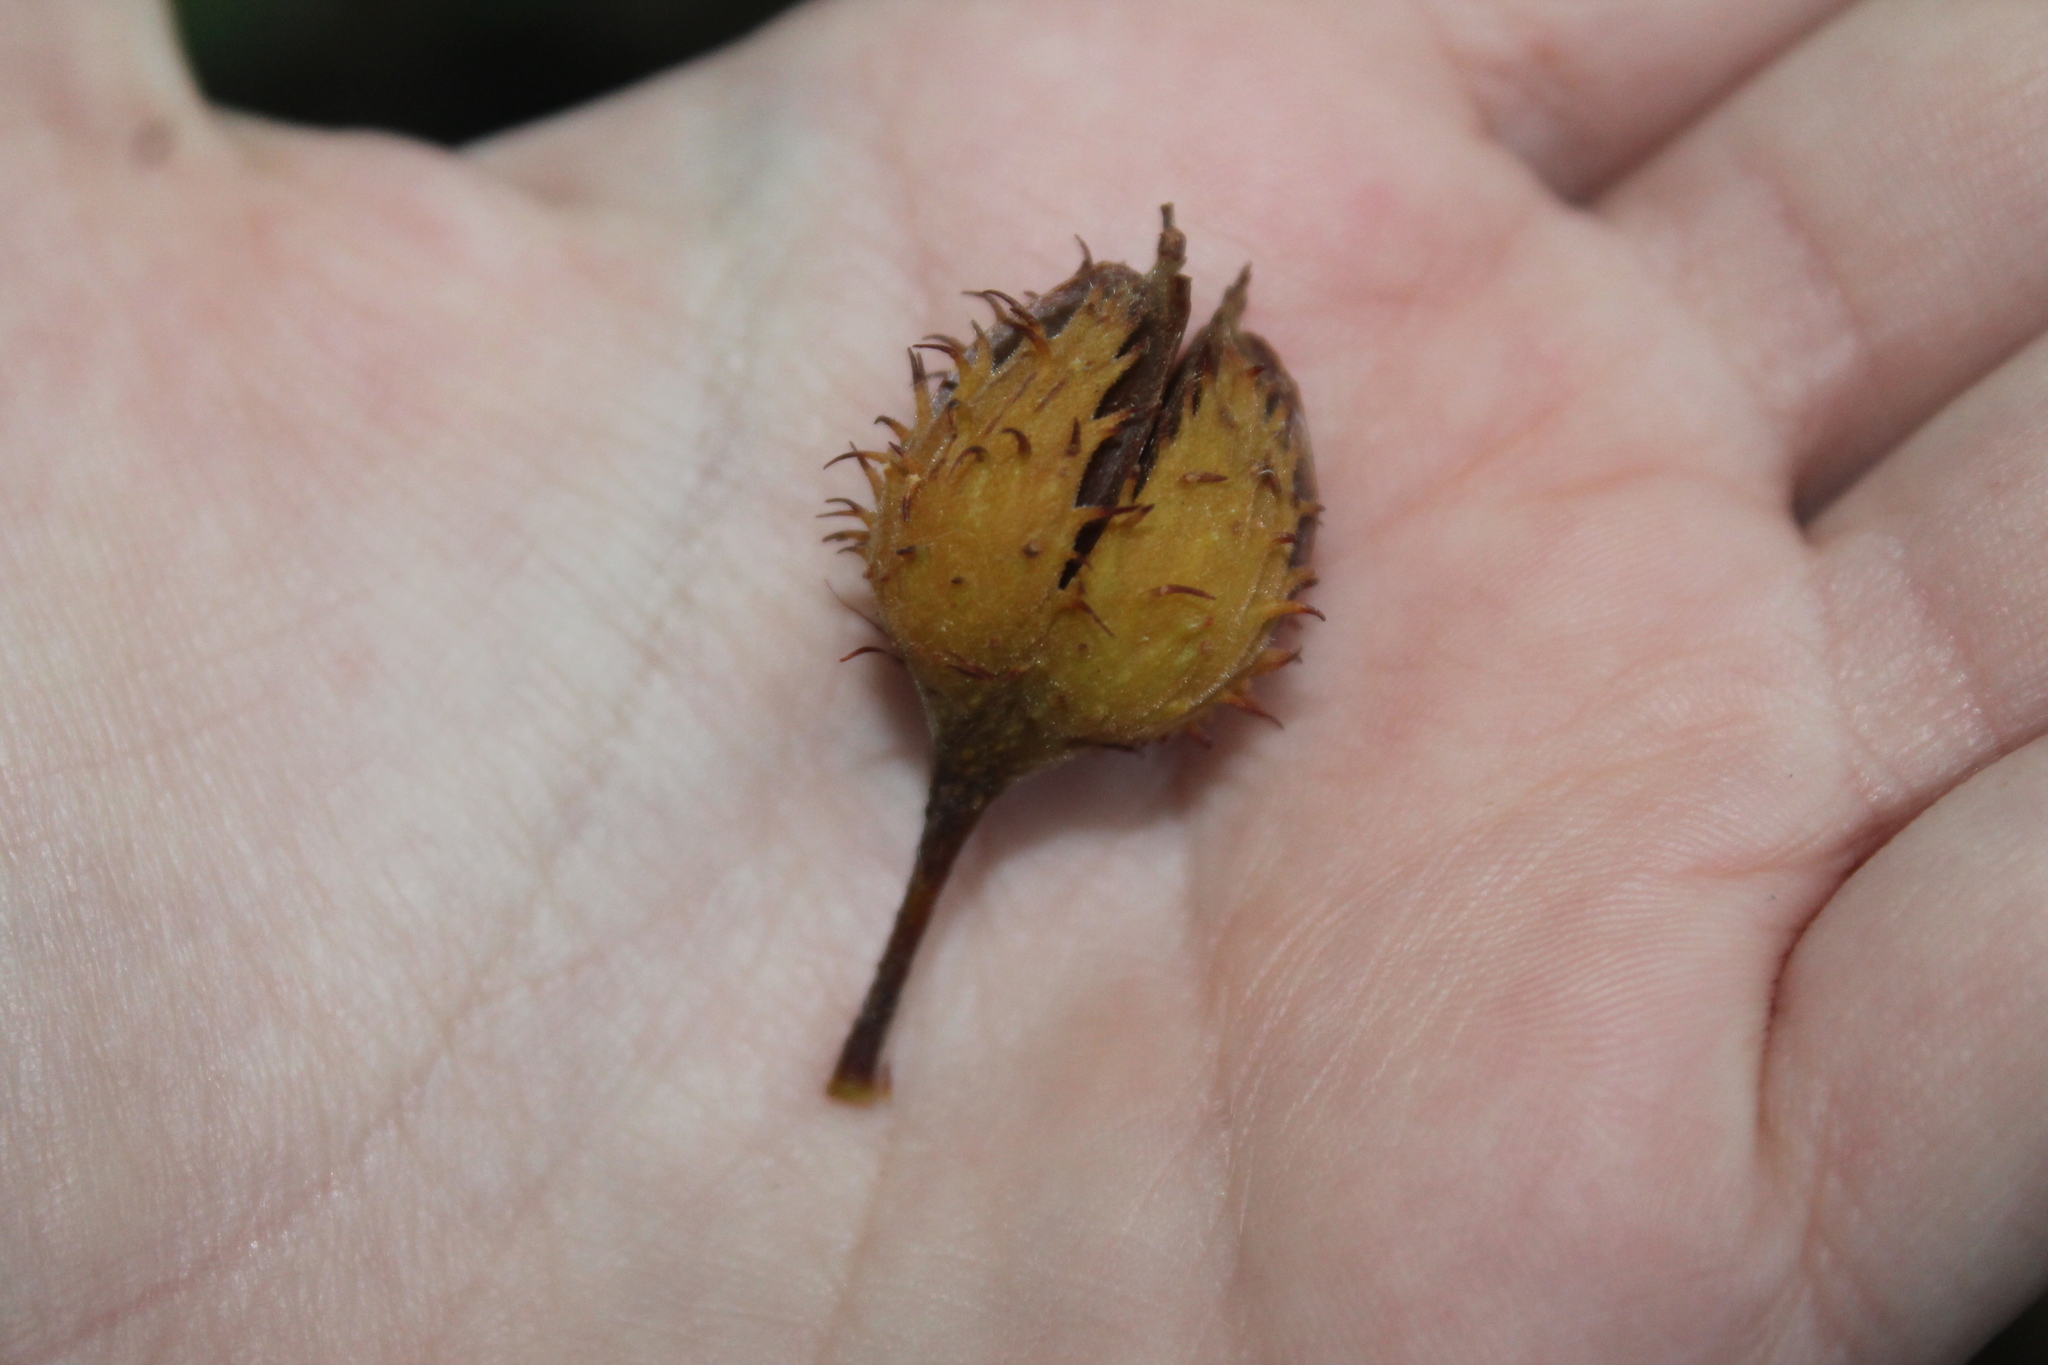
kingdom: Plantae
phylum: Tracheophyta
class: Magnoliopsida
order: Fagales
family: Fagaceae
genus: Fagus
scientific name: Fagus grandifolia
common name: American beech
